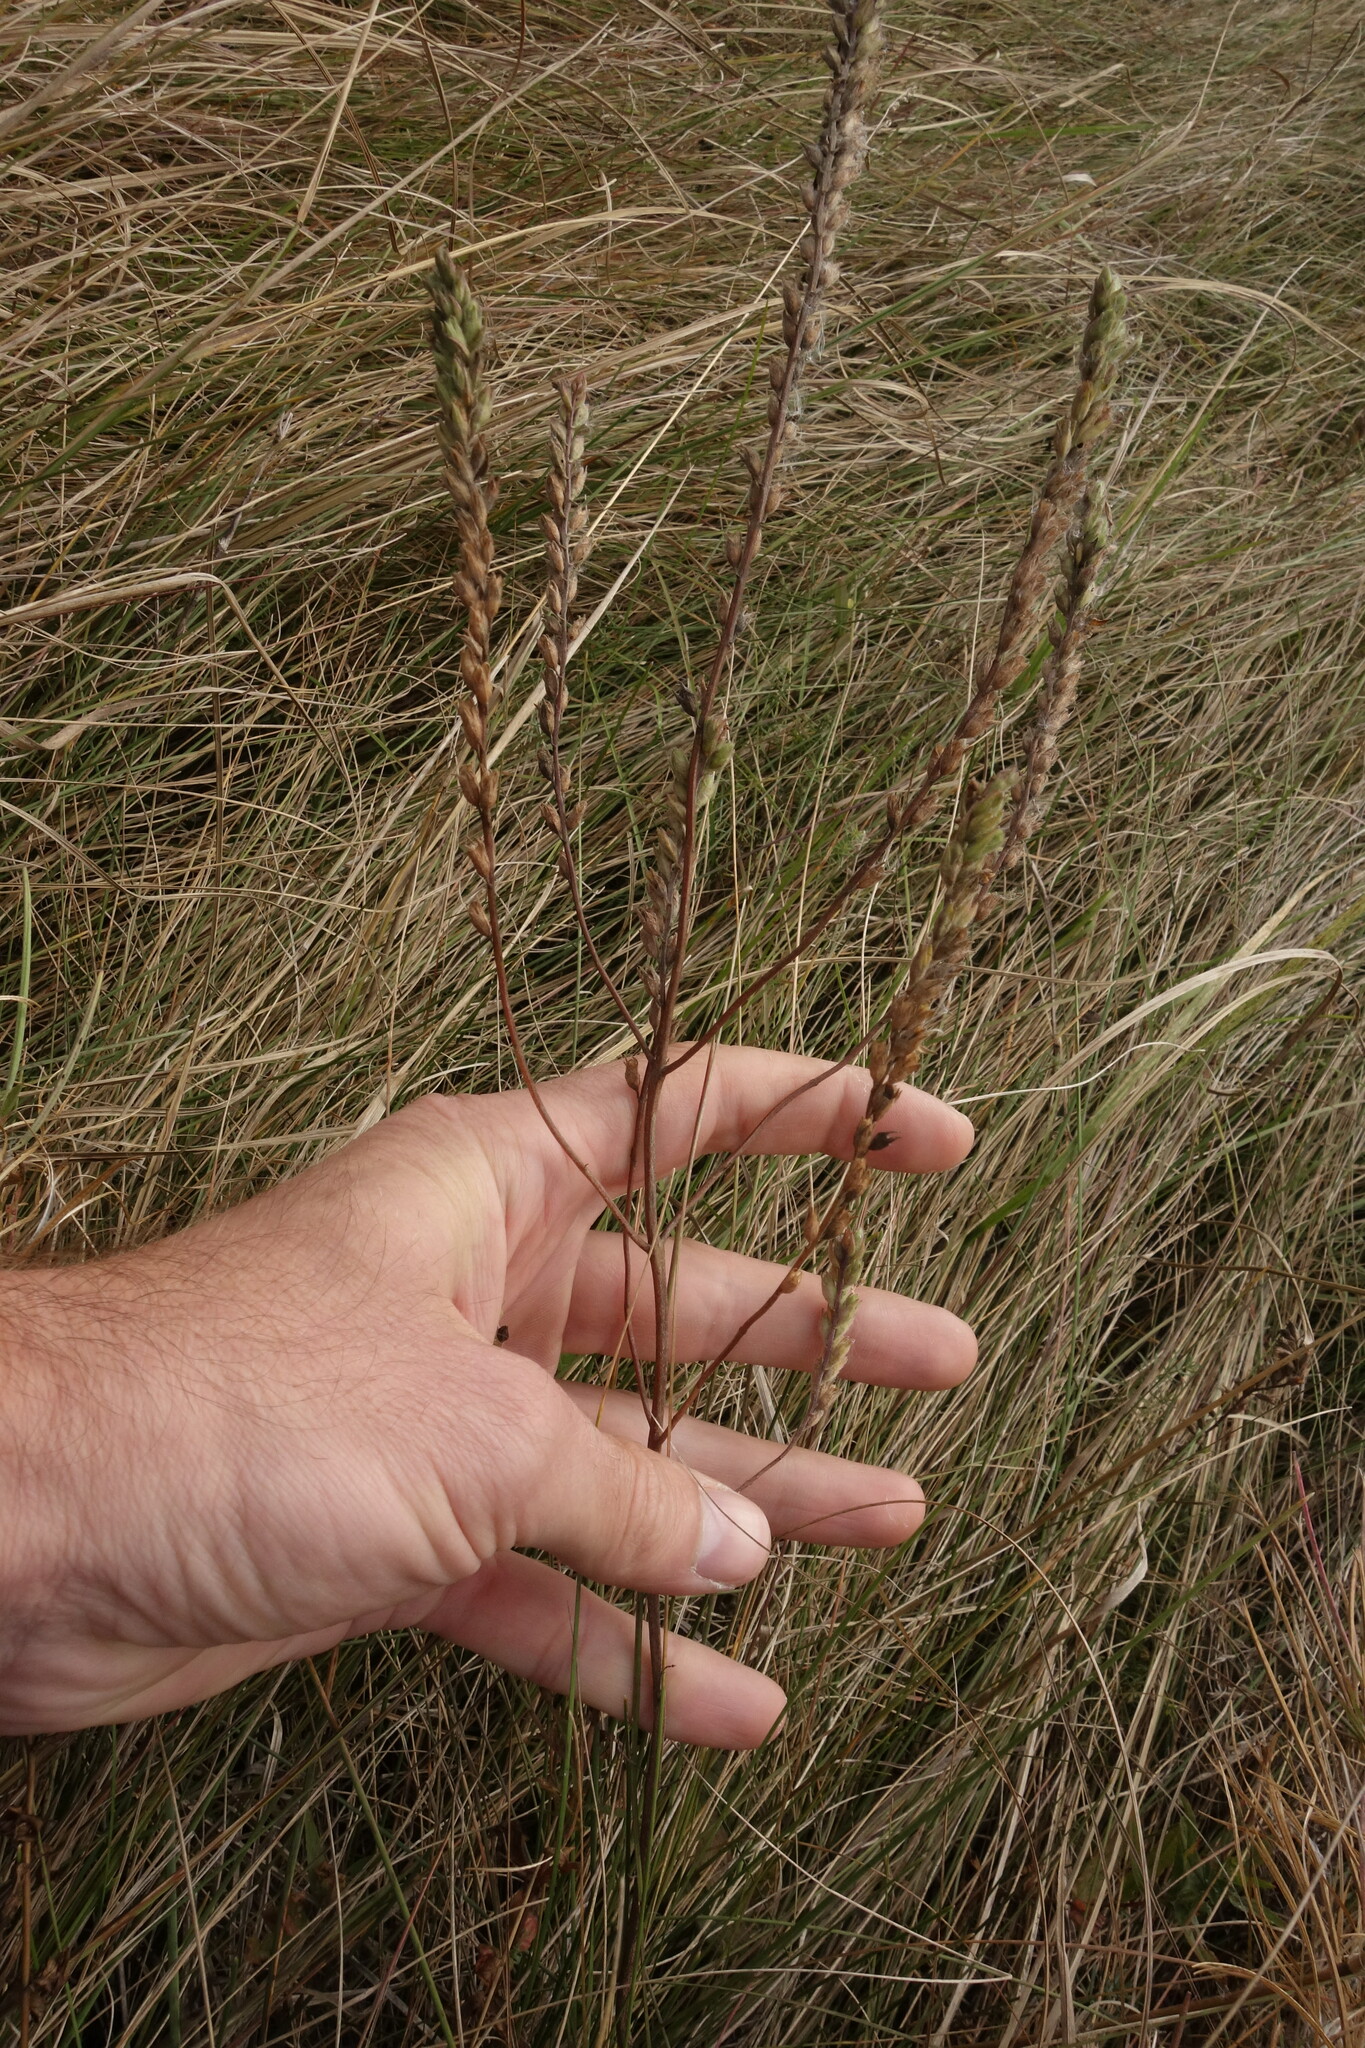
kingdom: Plantae
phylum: Tracheophyta
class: Magnoliopsida
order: Lamiales
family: Orobanchaceae
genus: Odontites
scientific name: Odontites vulgaris
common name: Broomrape
